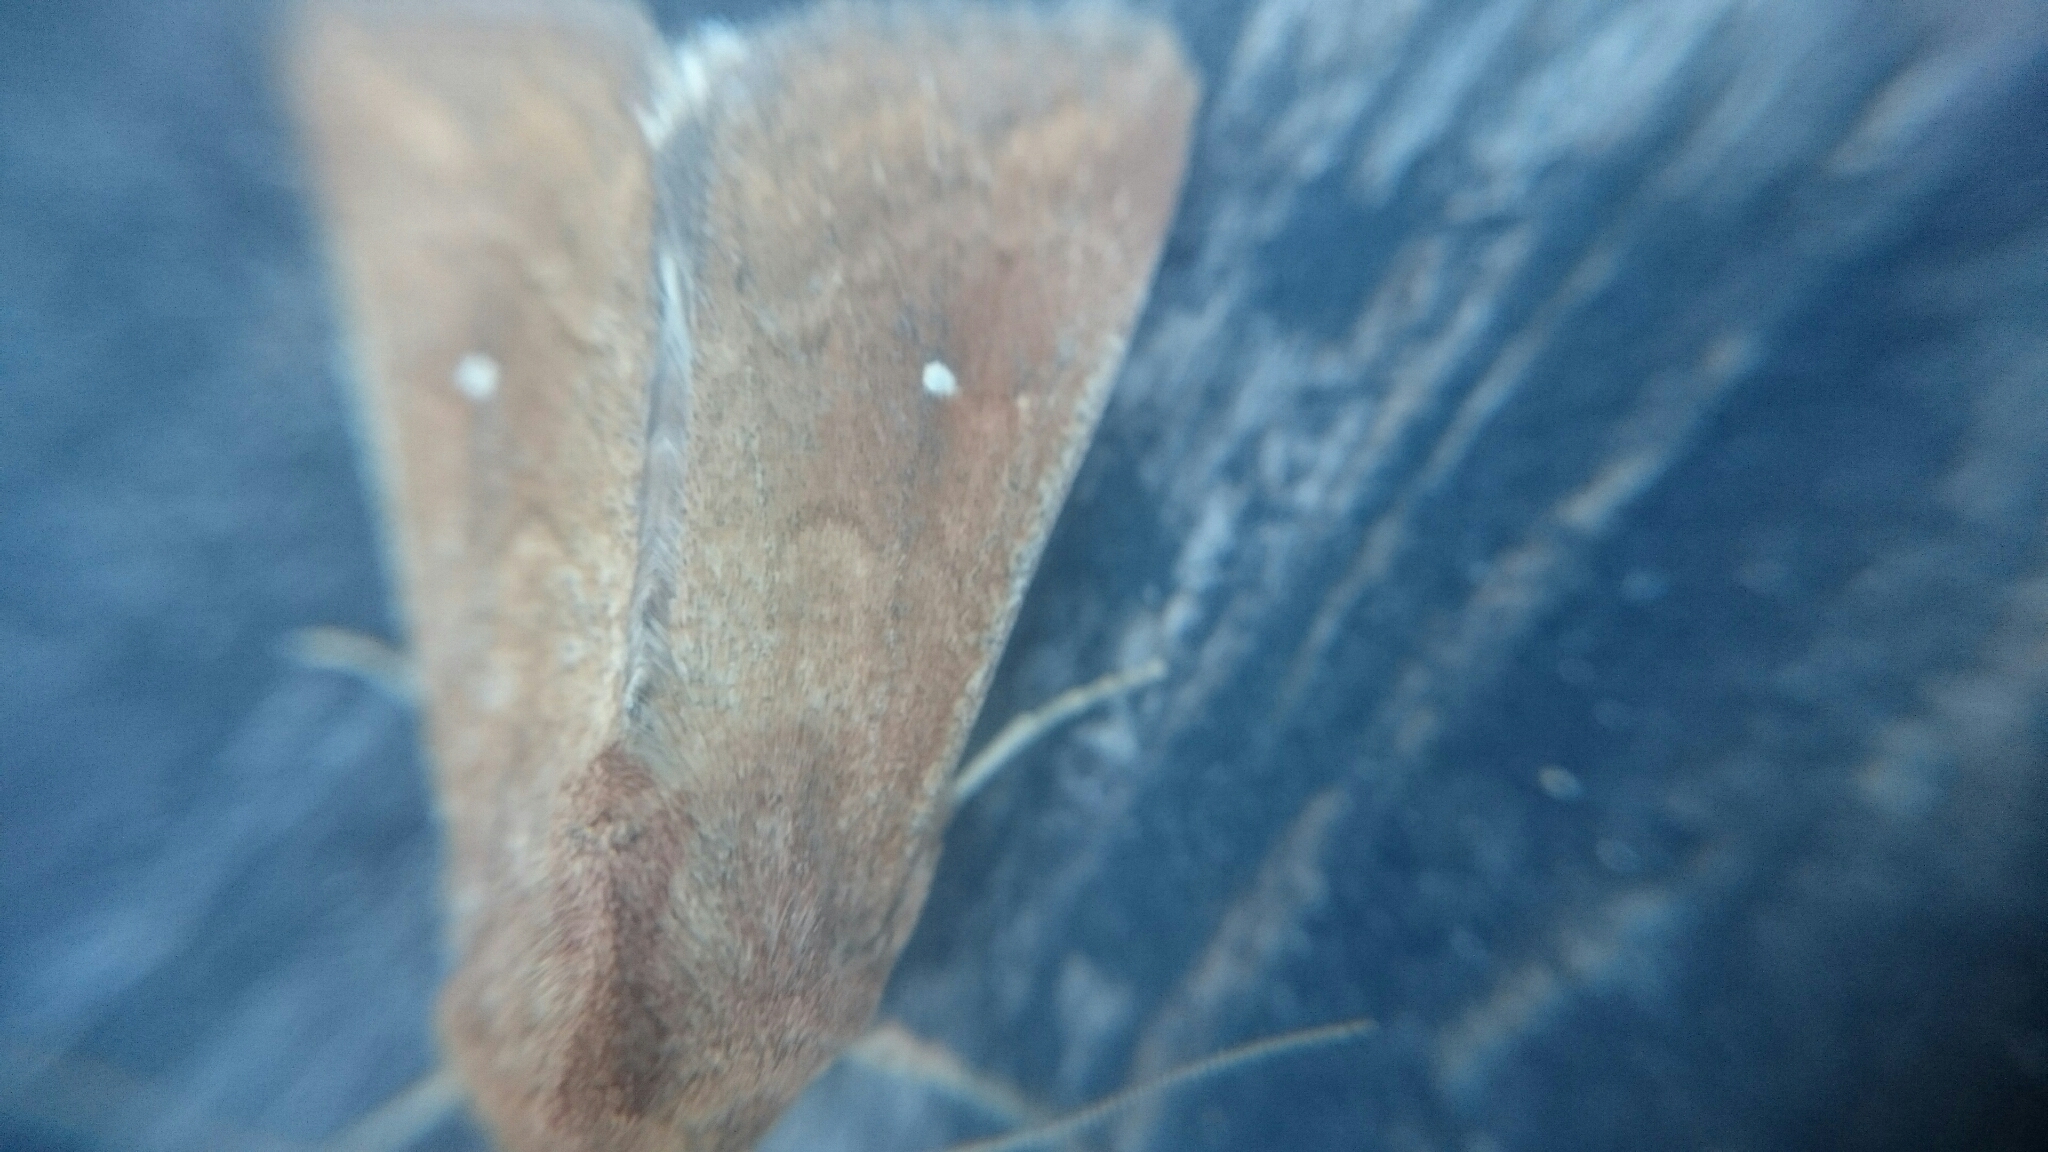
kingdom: Animalia
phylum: Arthropoda
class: Insecta
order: Lepidoptera
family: Noctuidae
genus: Mythimna
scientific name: Mythimna albipuncta
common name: White-point
